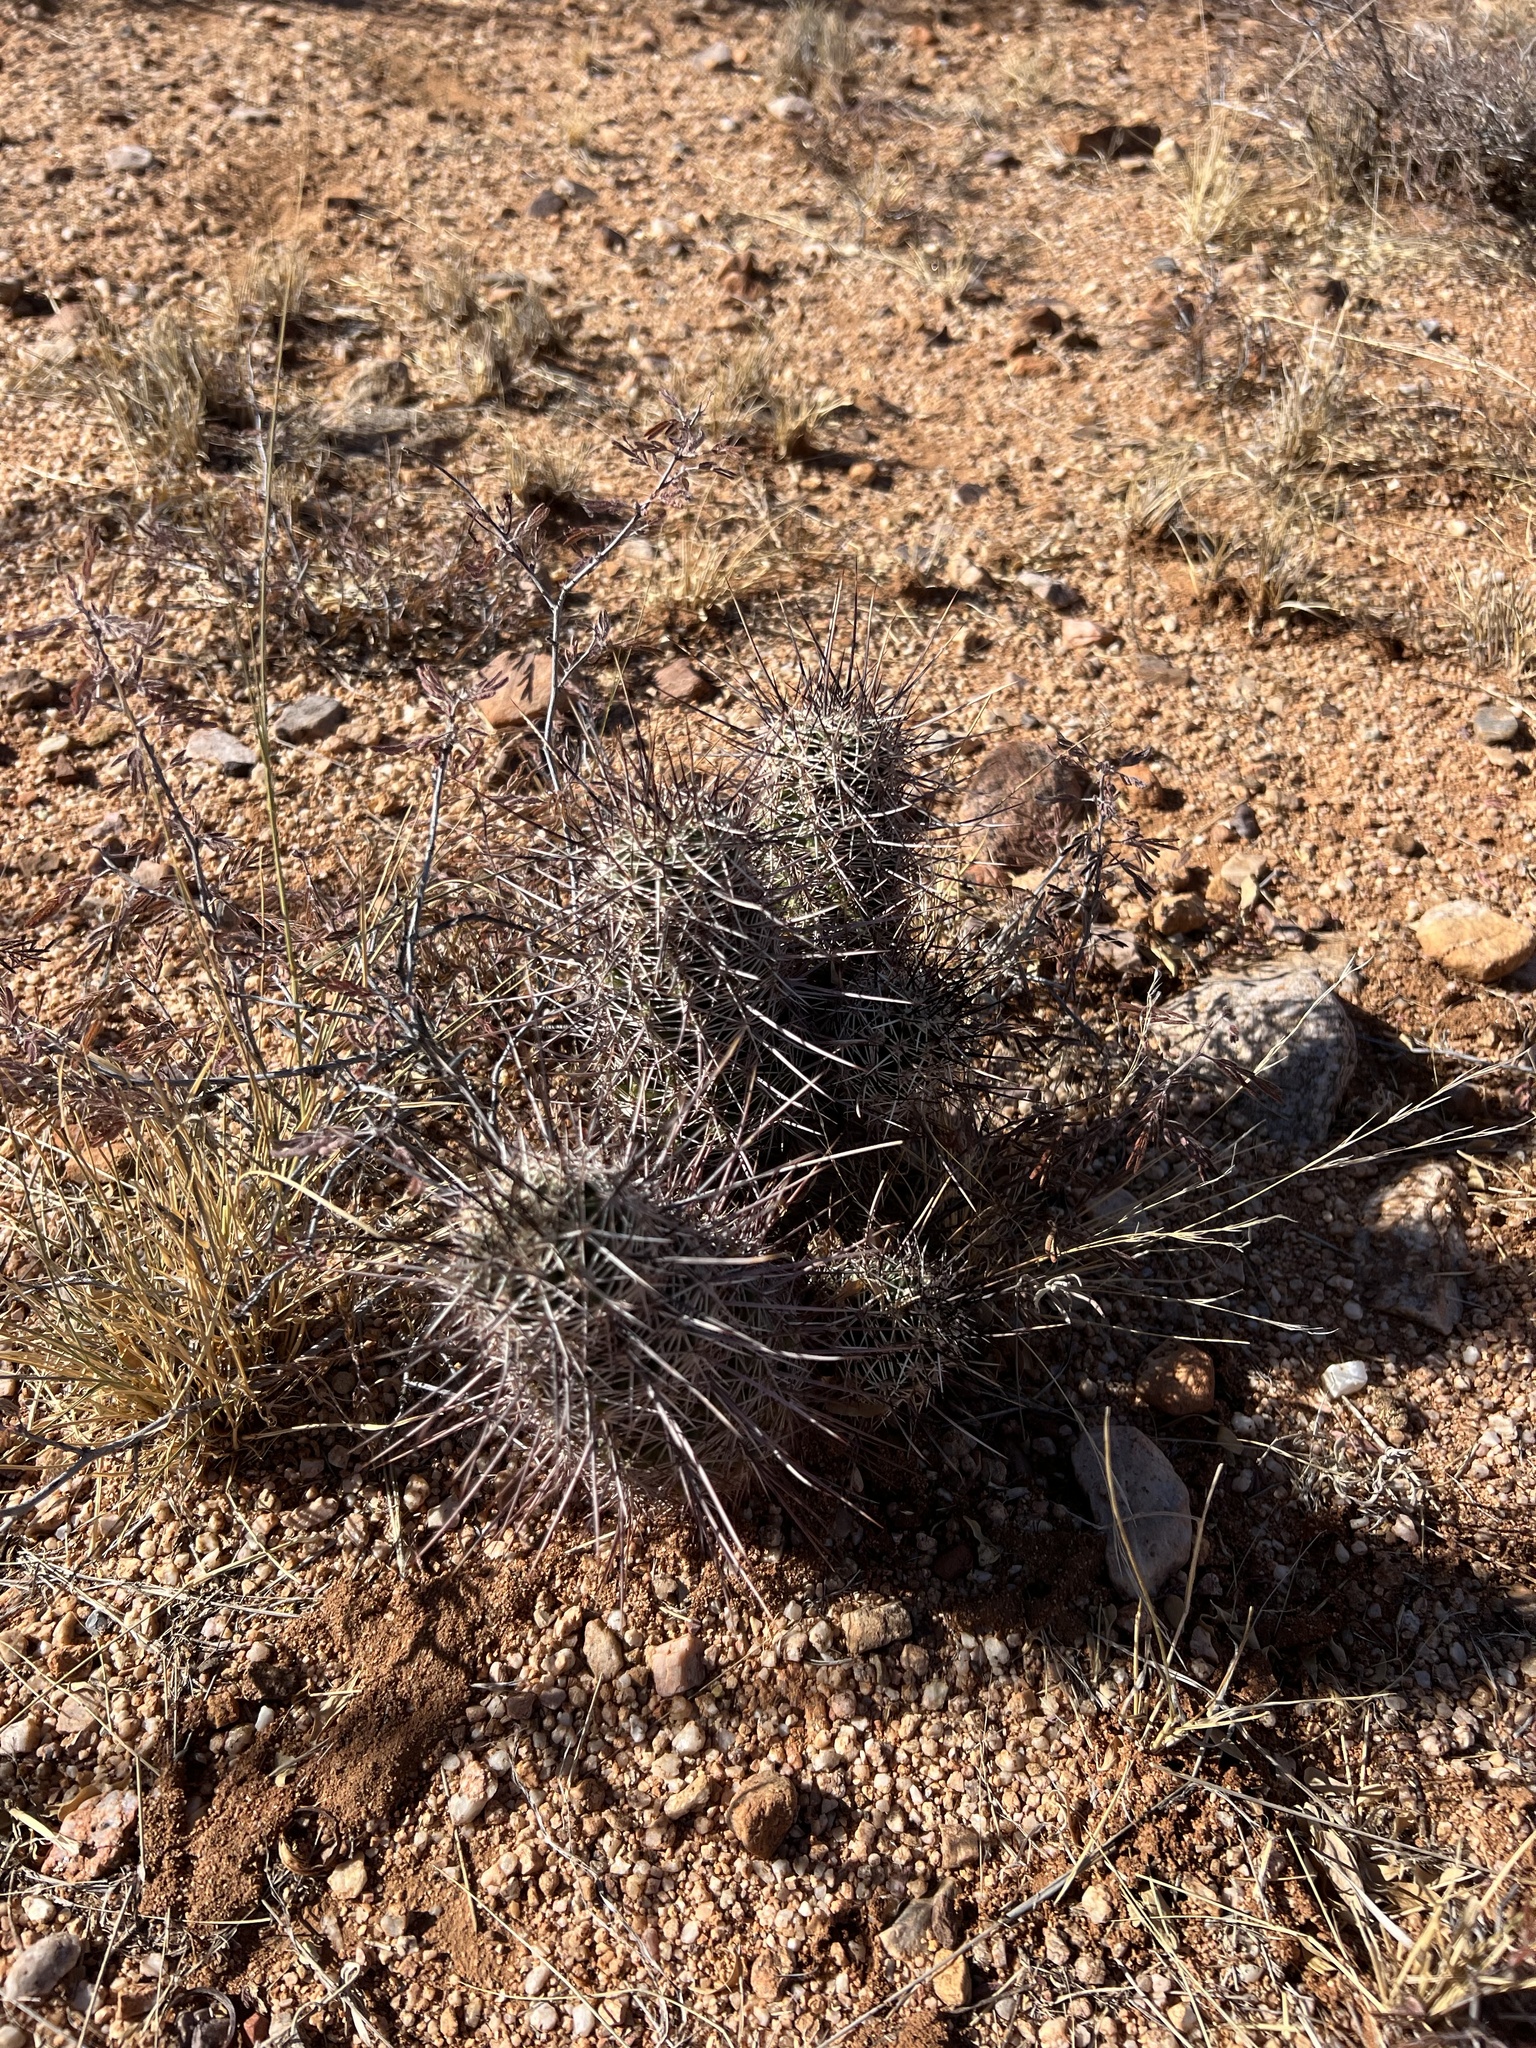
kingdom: Plantae
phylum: Tracheophyta
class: Magnoliopsida
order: Caryophyllales
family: Cactaceae
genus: Echinocereus
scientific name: Echinocereus fasciculatus
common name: Bundle hedgehog
